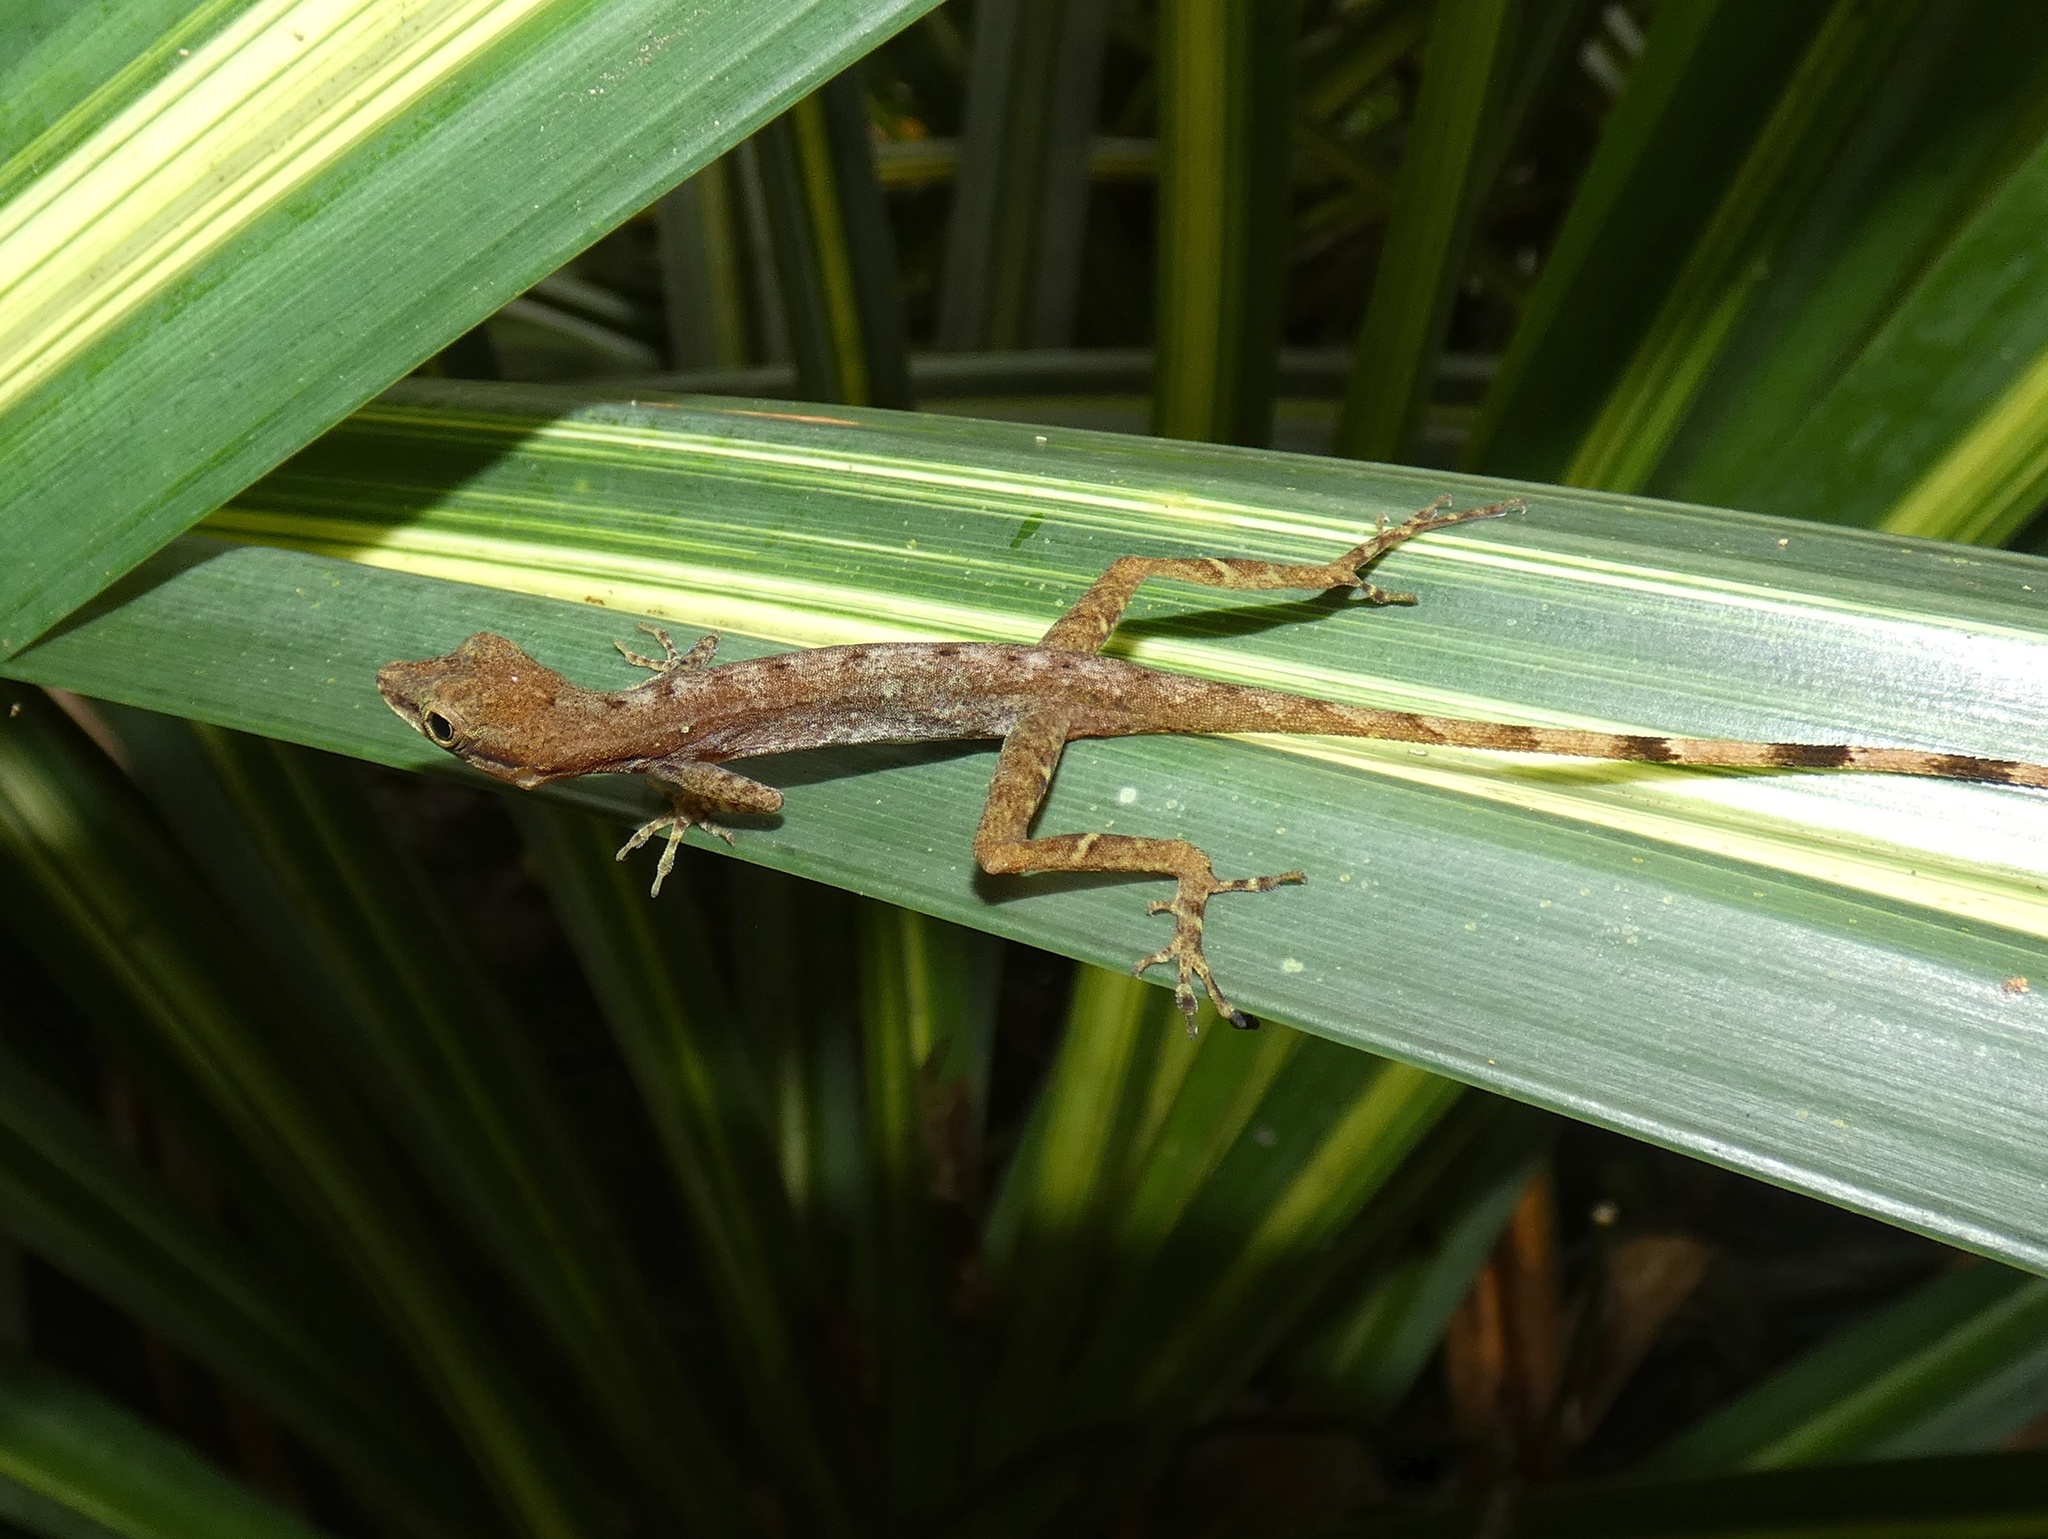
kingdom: Animalia
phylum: Chordata
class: Squamata
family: Dactyloidae
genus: Anolis
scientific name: Anolis limifrons
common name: Border anole
